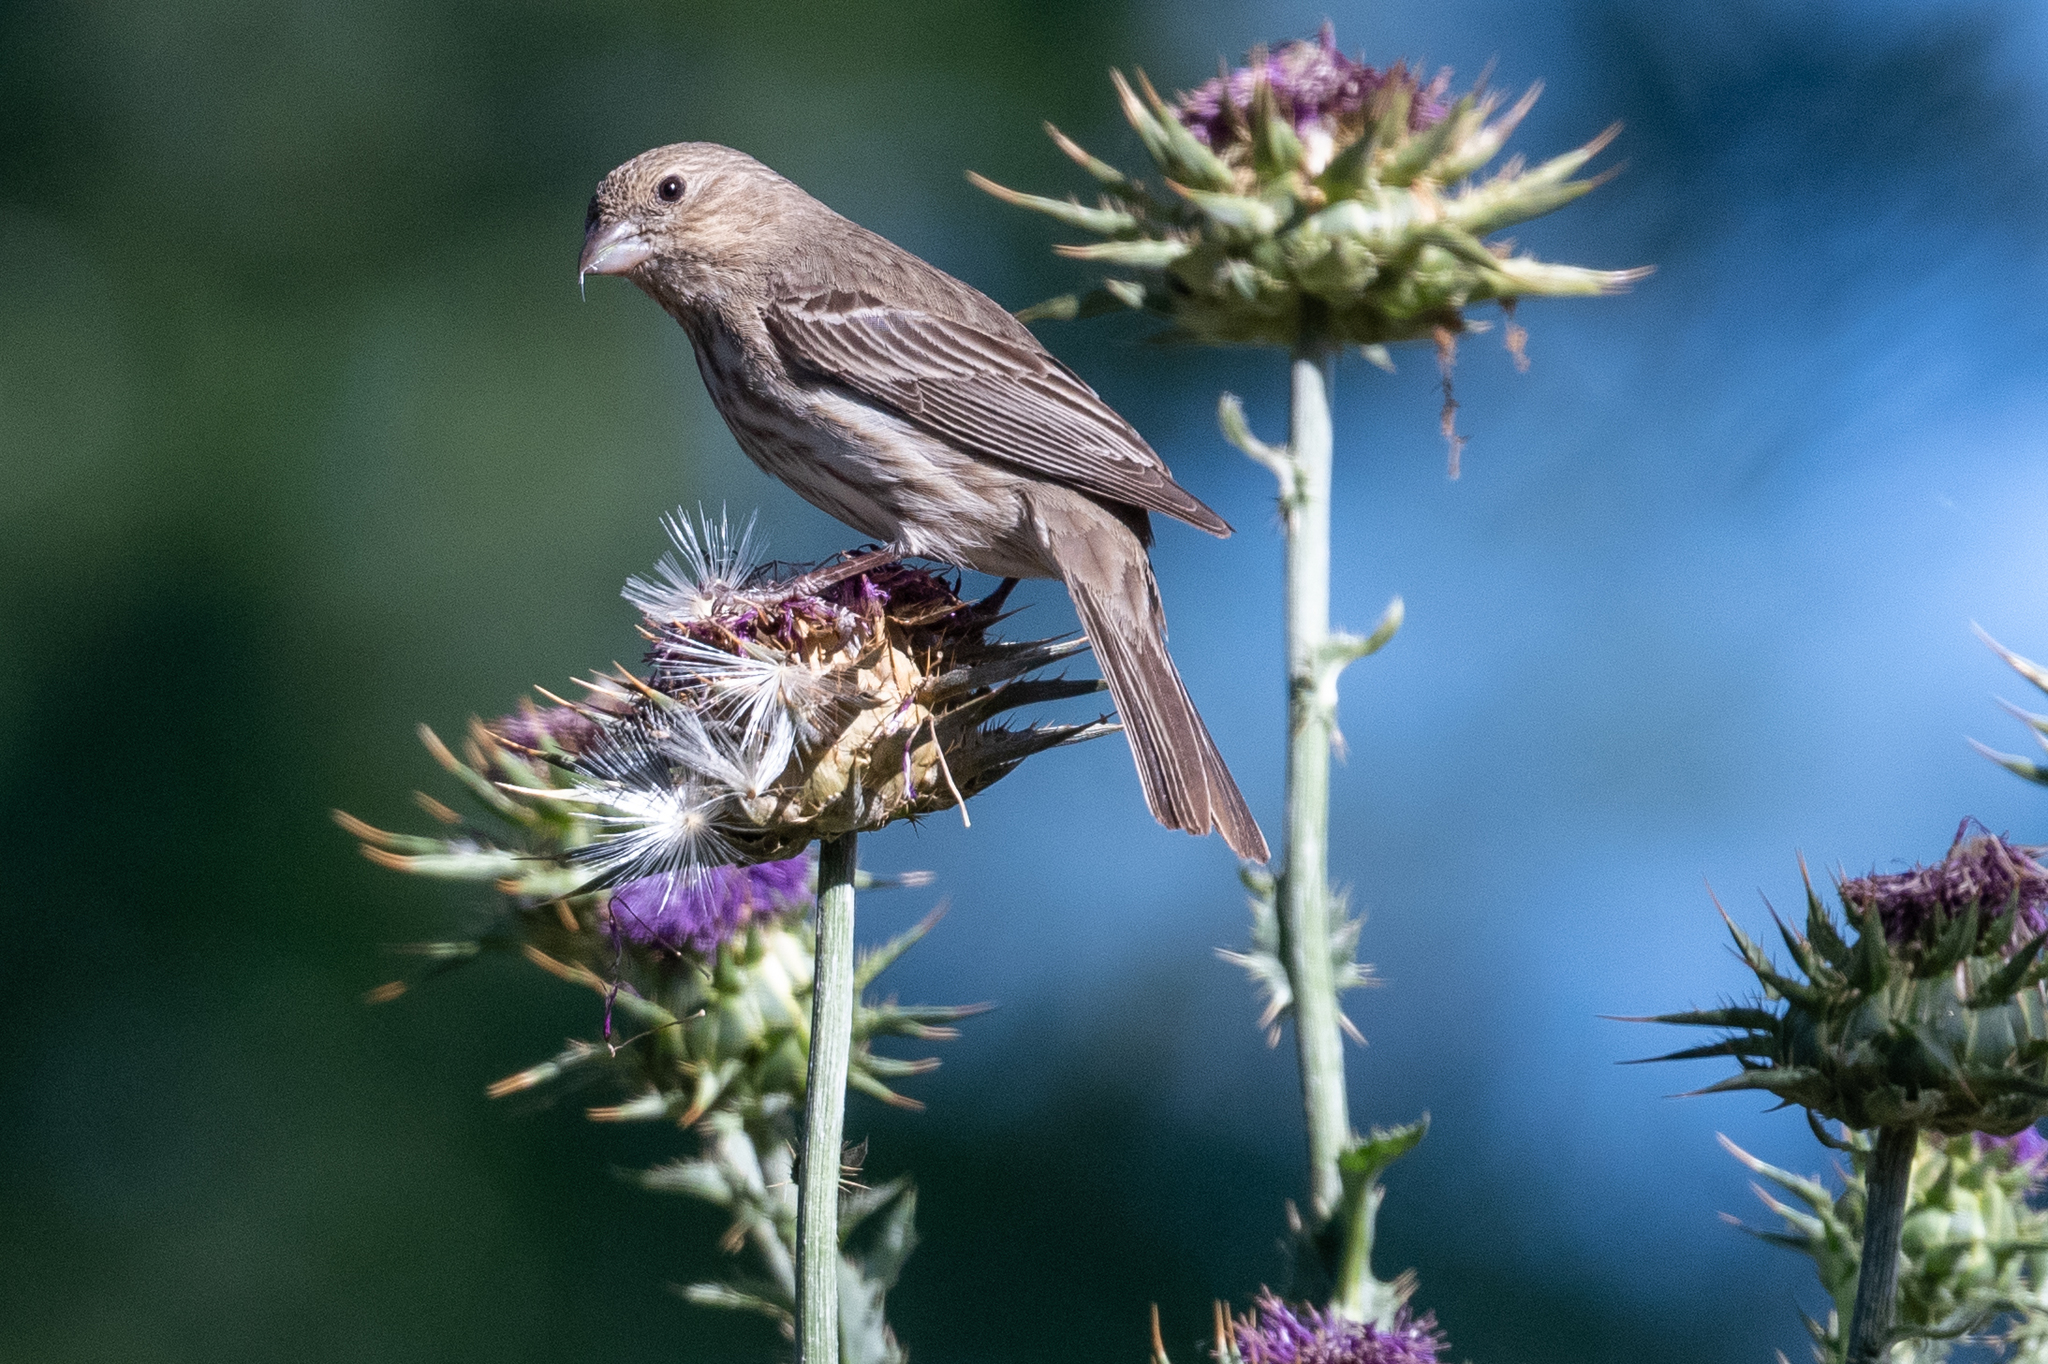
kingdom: Animalia
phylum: Chordata
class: Aves
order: Passeriformes
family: Fringillidae
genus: Haemorhous
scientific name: Haemorhous mexicanus
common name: House finch
